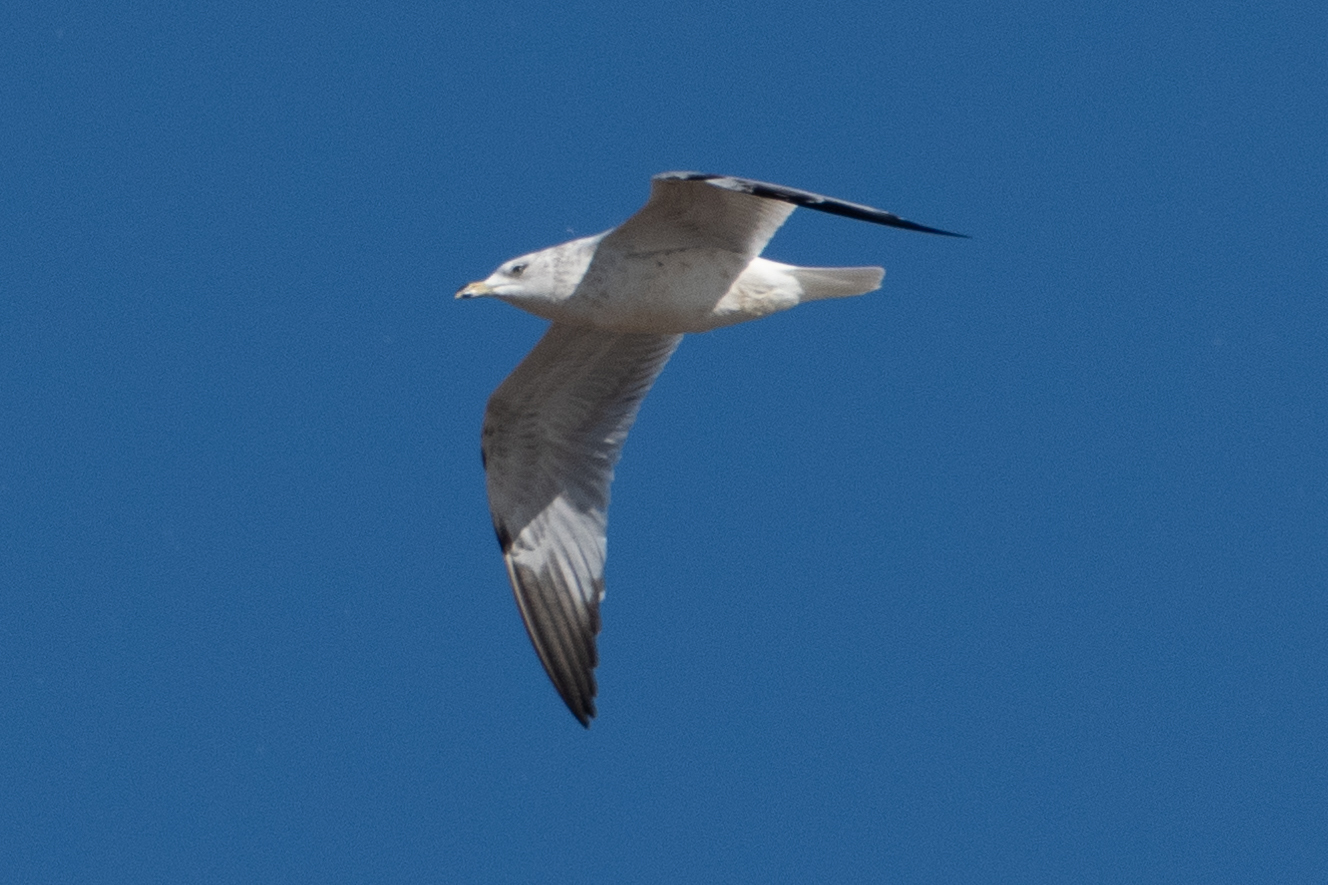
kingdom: Animalia
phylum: Chordata
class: Aves
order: Charadriiformes
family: Laridae
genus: Larus
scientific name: Larus delawarensis
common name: Ring-billed gull
